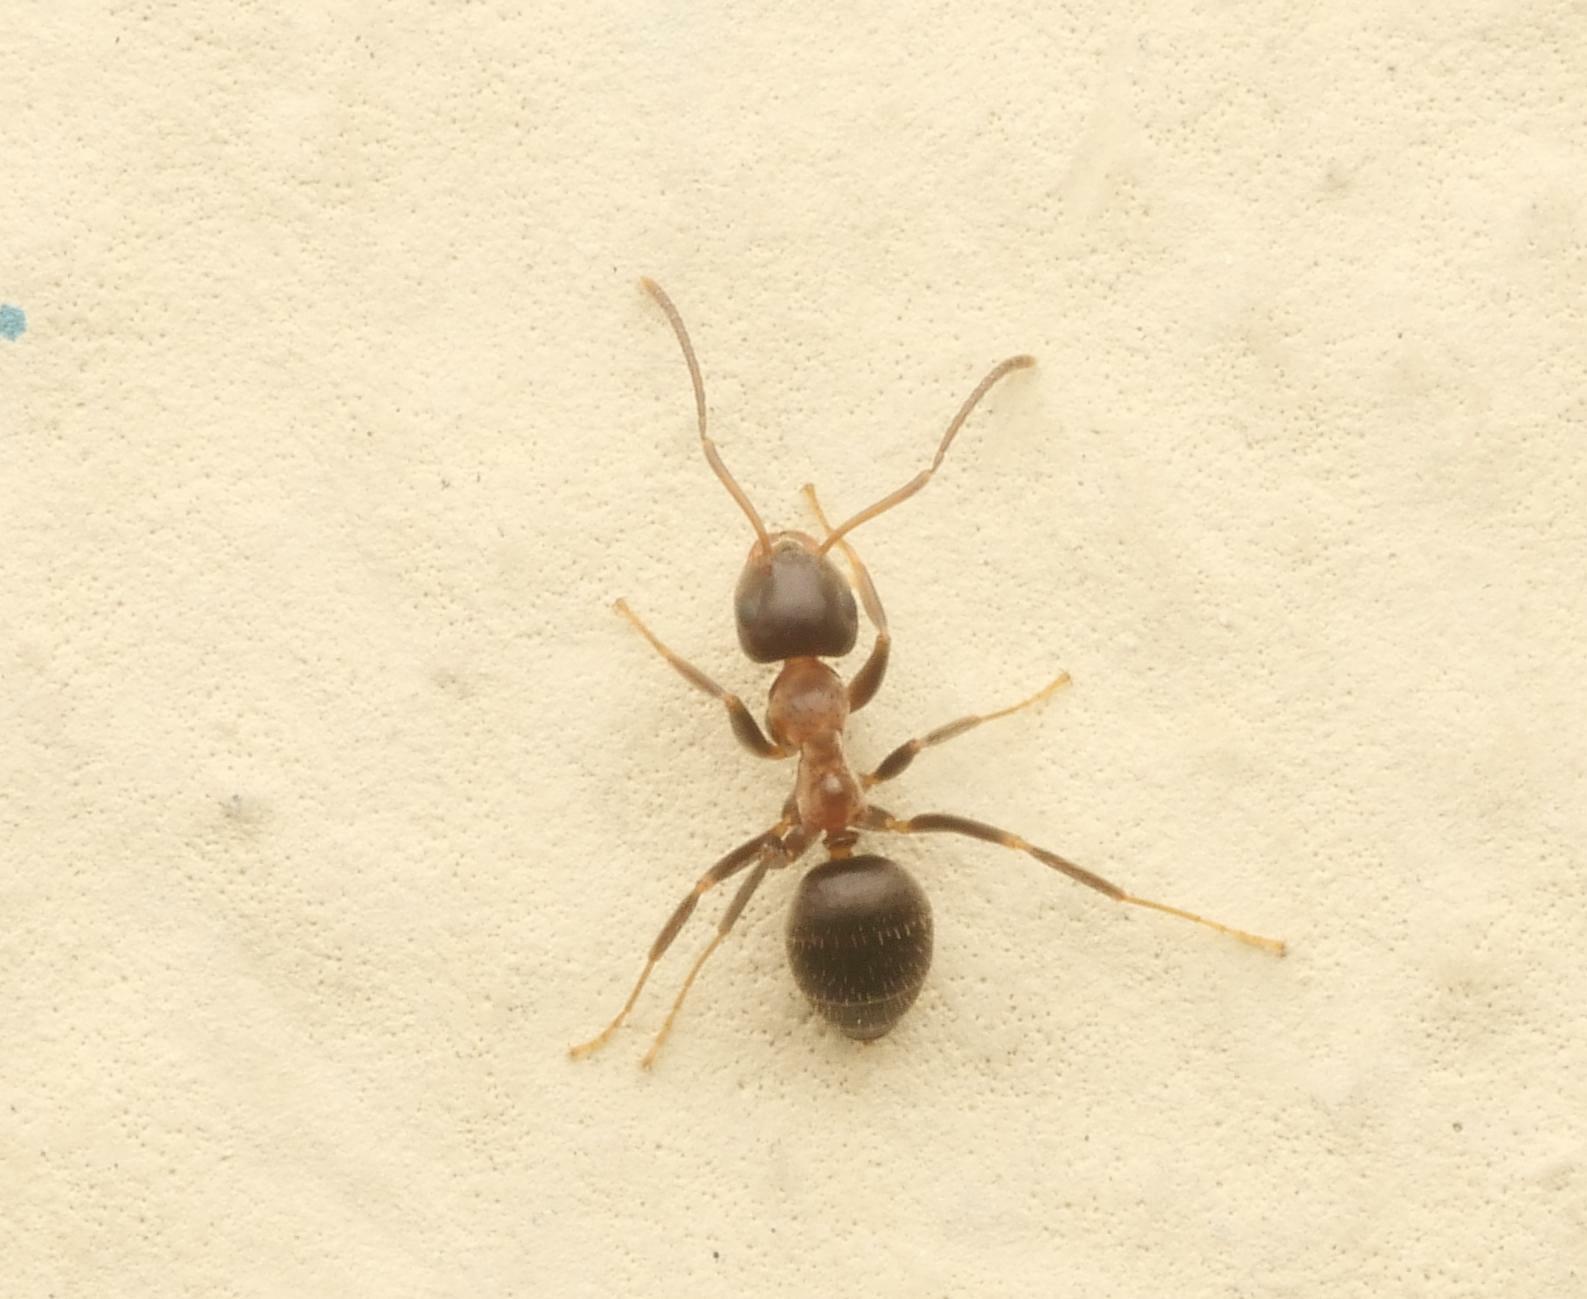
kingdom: Animalia
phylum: Arthropoda
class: Insecta
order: Hymenoptera
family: Formicidae
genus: Lasius
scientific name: Lasius emarginatus
